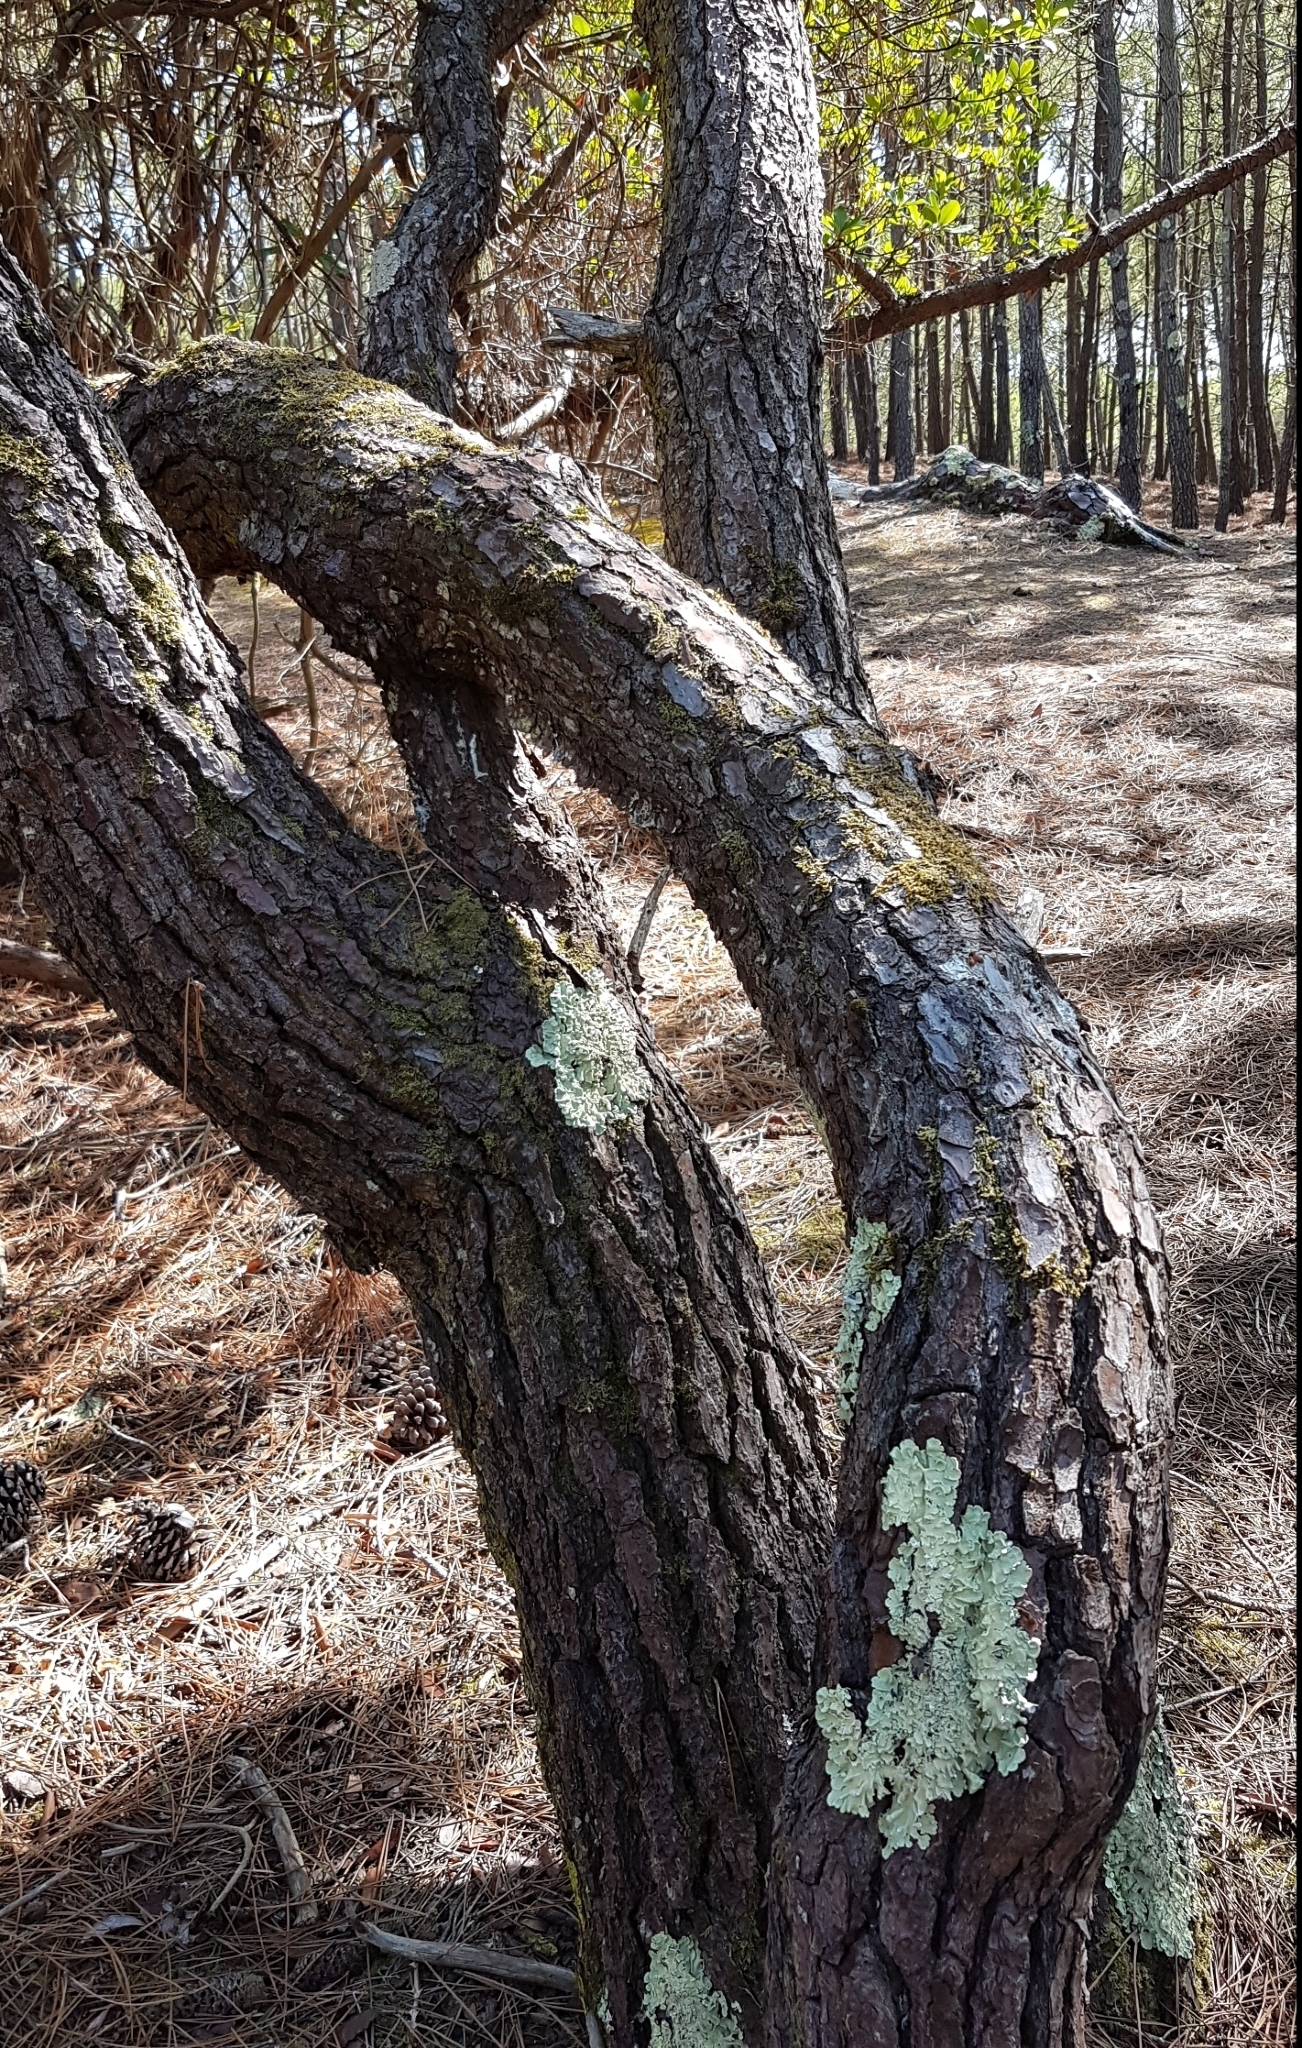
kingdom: Fungi
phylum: Ascomycota
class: Lecanoromycetes
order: Lecanorales
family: Parmeliaceae
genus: Flavoparmelia
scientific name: Flavoparmelia caperata
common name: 40-mile per hour lichen
